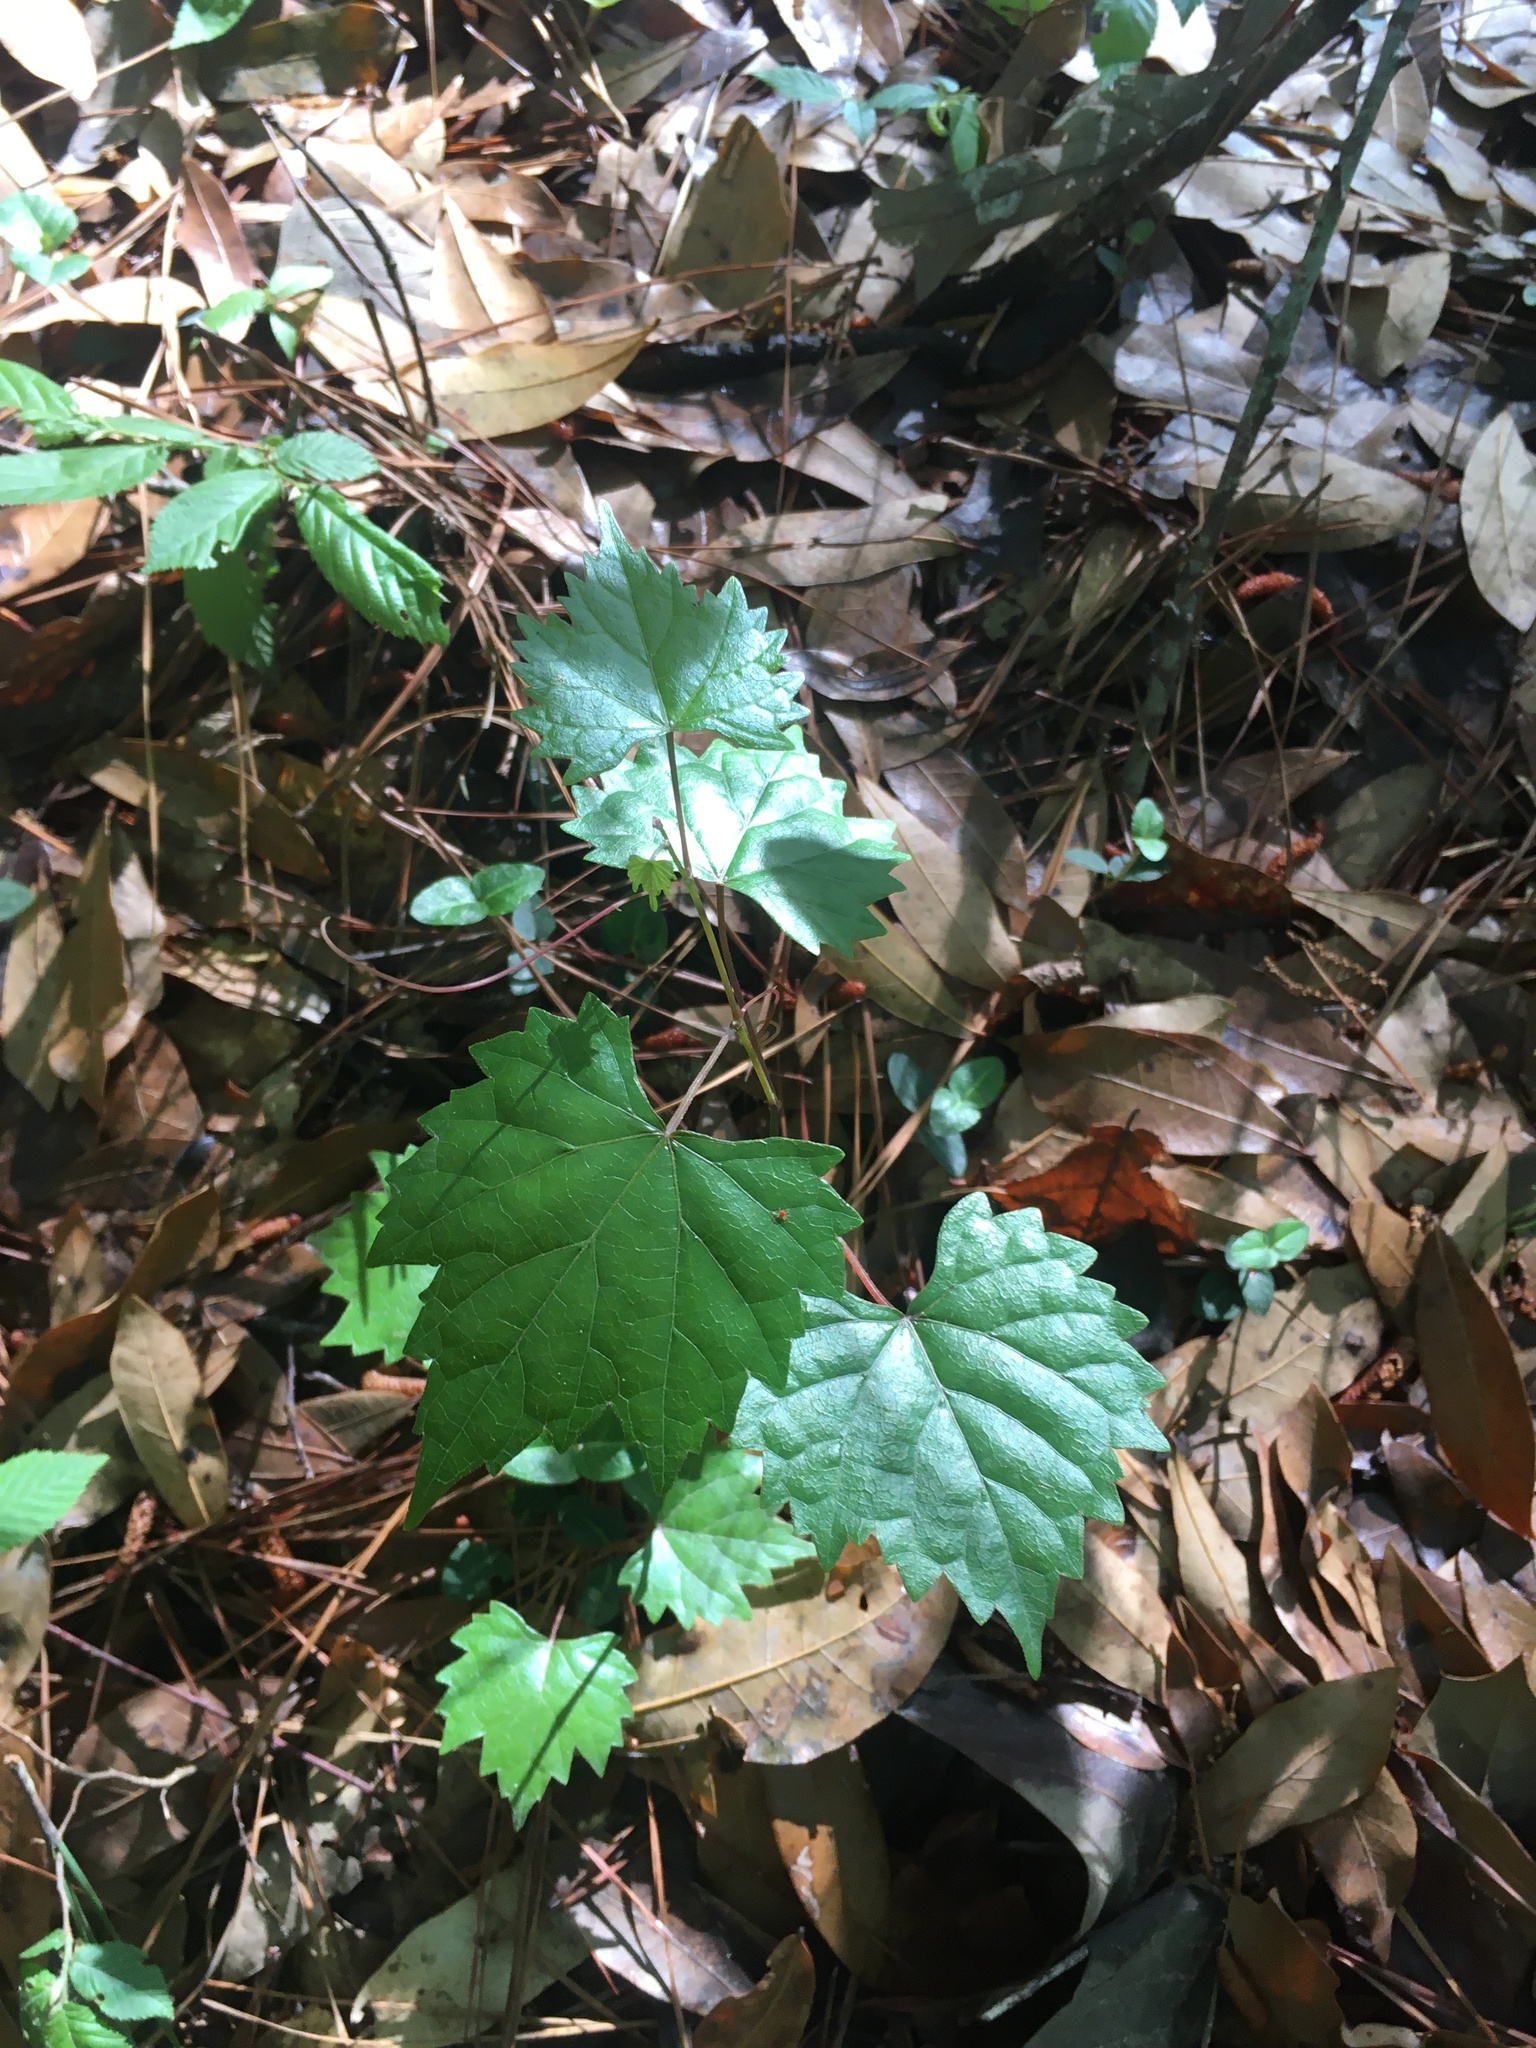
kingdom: Plantae
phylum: Tracheophyta
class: Magnoliopsida
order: Vitales
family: Vitaceae
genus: Vitis
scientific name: Vitis rotundifolia
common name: Muscadine grape
